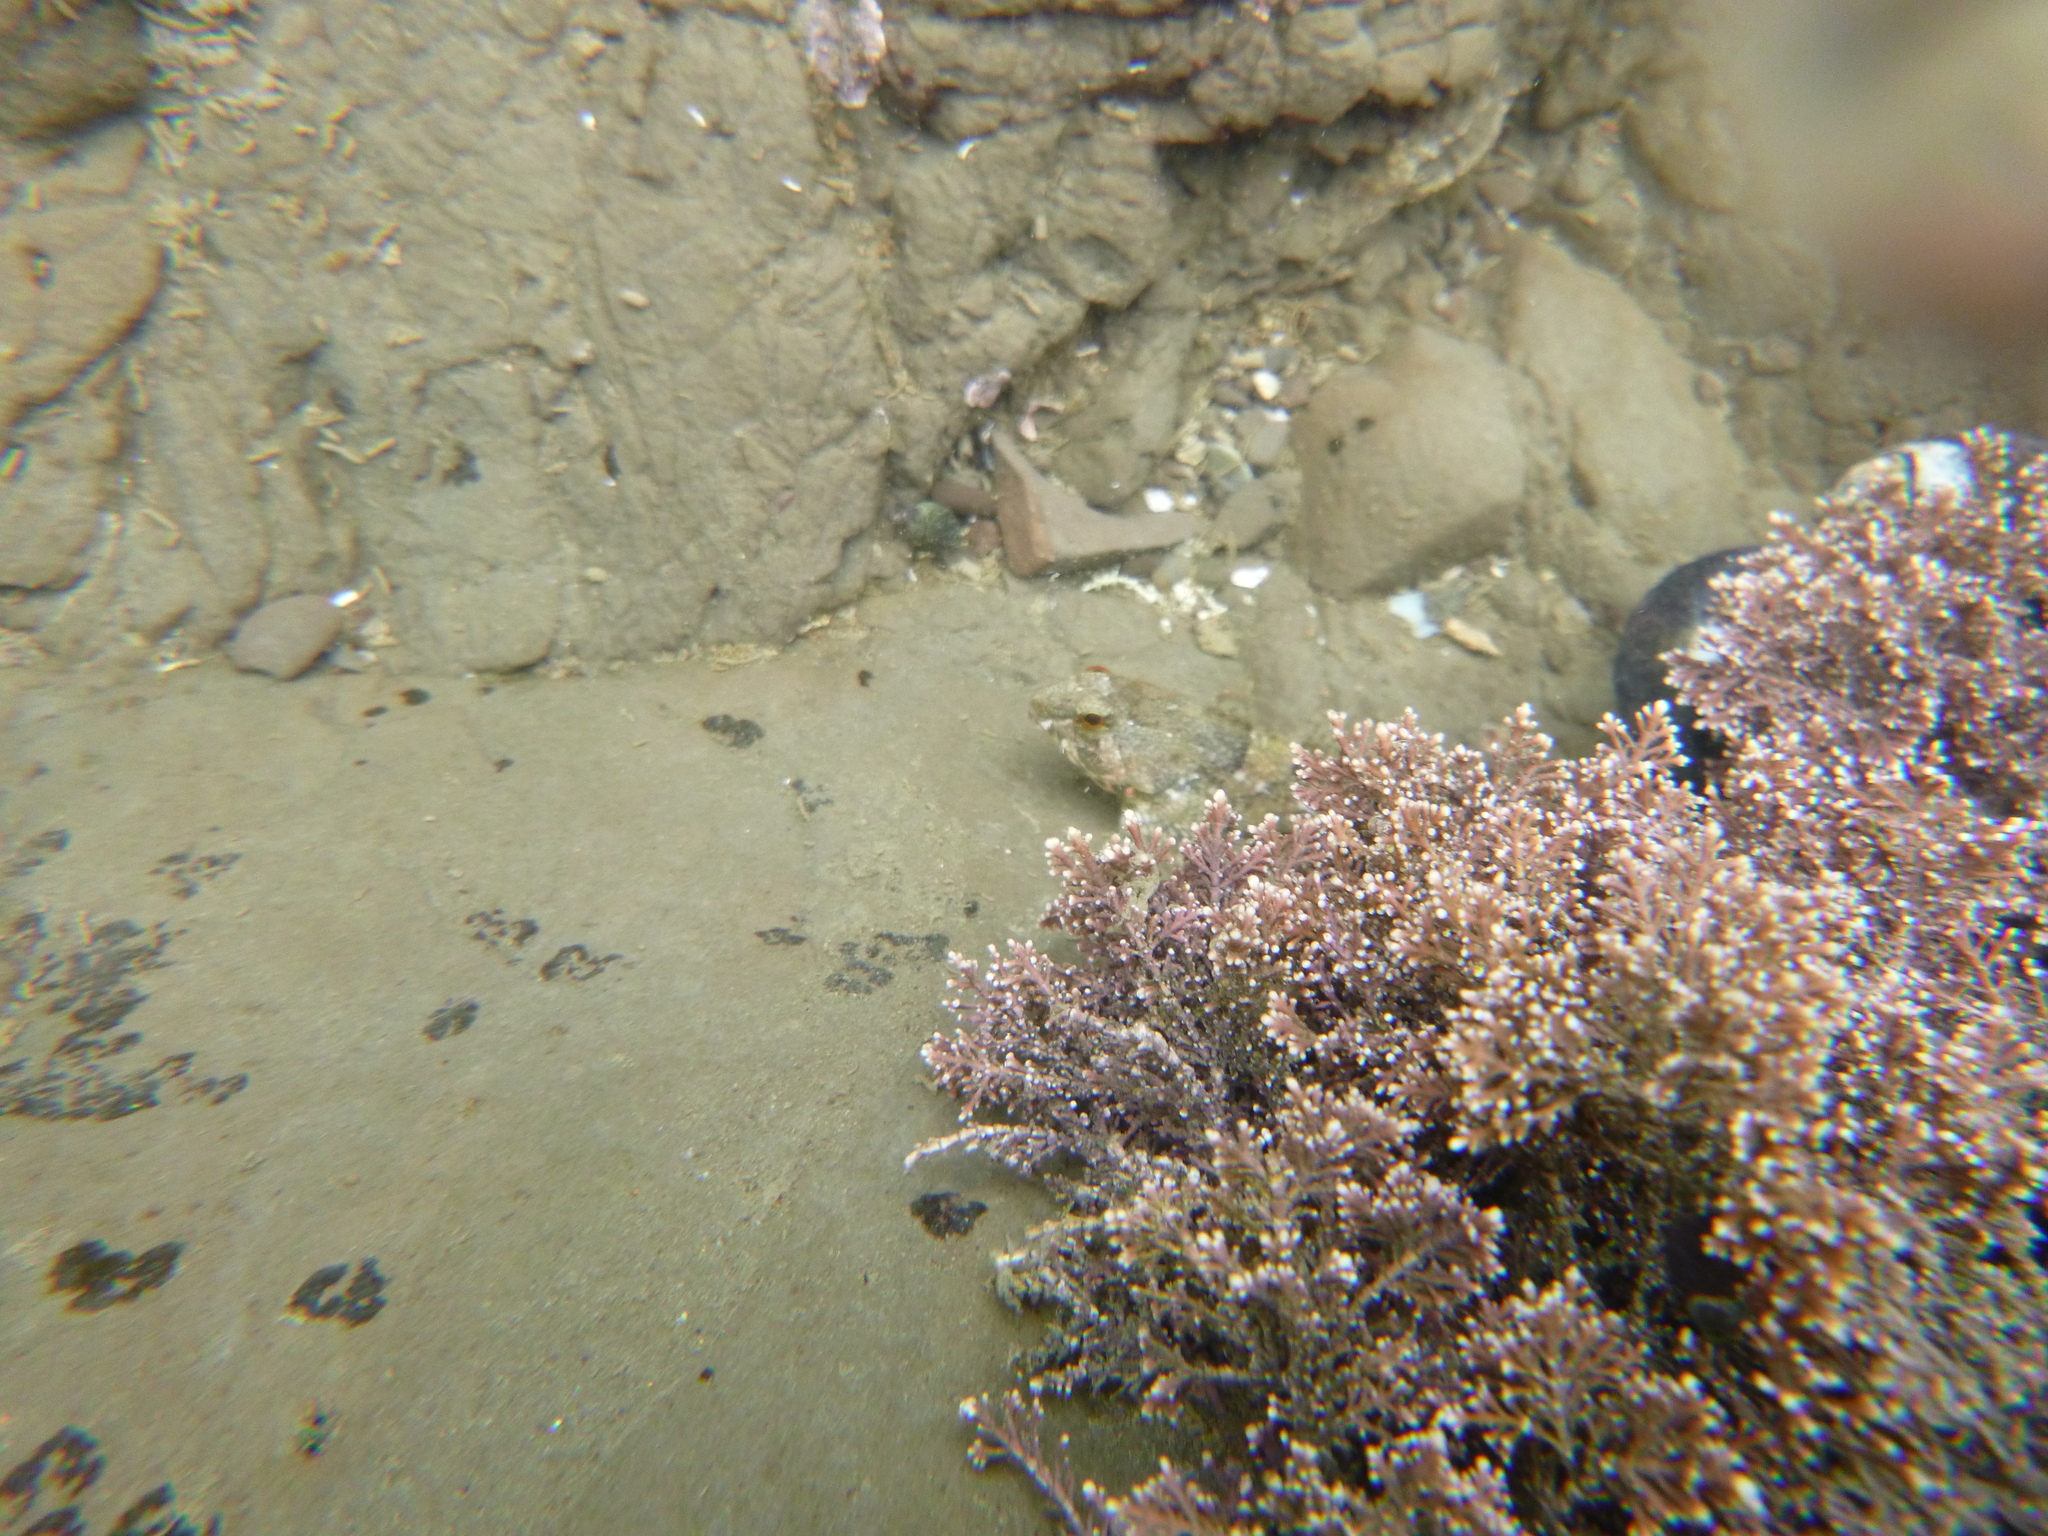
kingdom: Animalia
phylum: Chordata
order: Scorpaeniformes
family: Cottidae
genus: Oligocottus
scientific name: Oligocottus maculosus
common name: Tidepool sculpin
